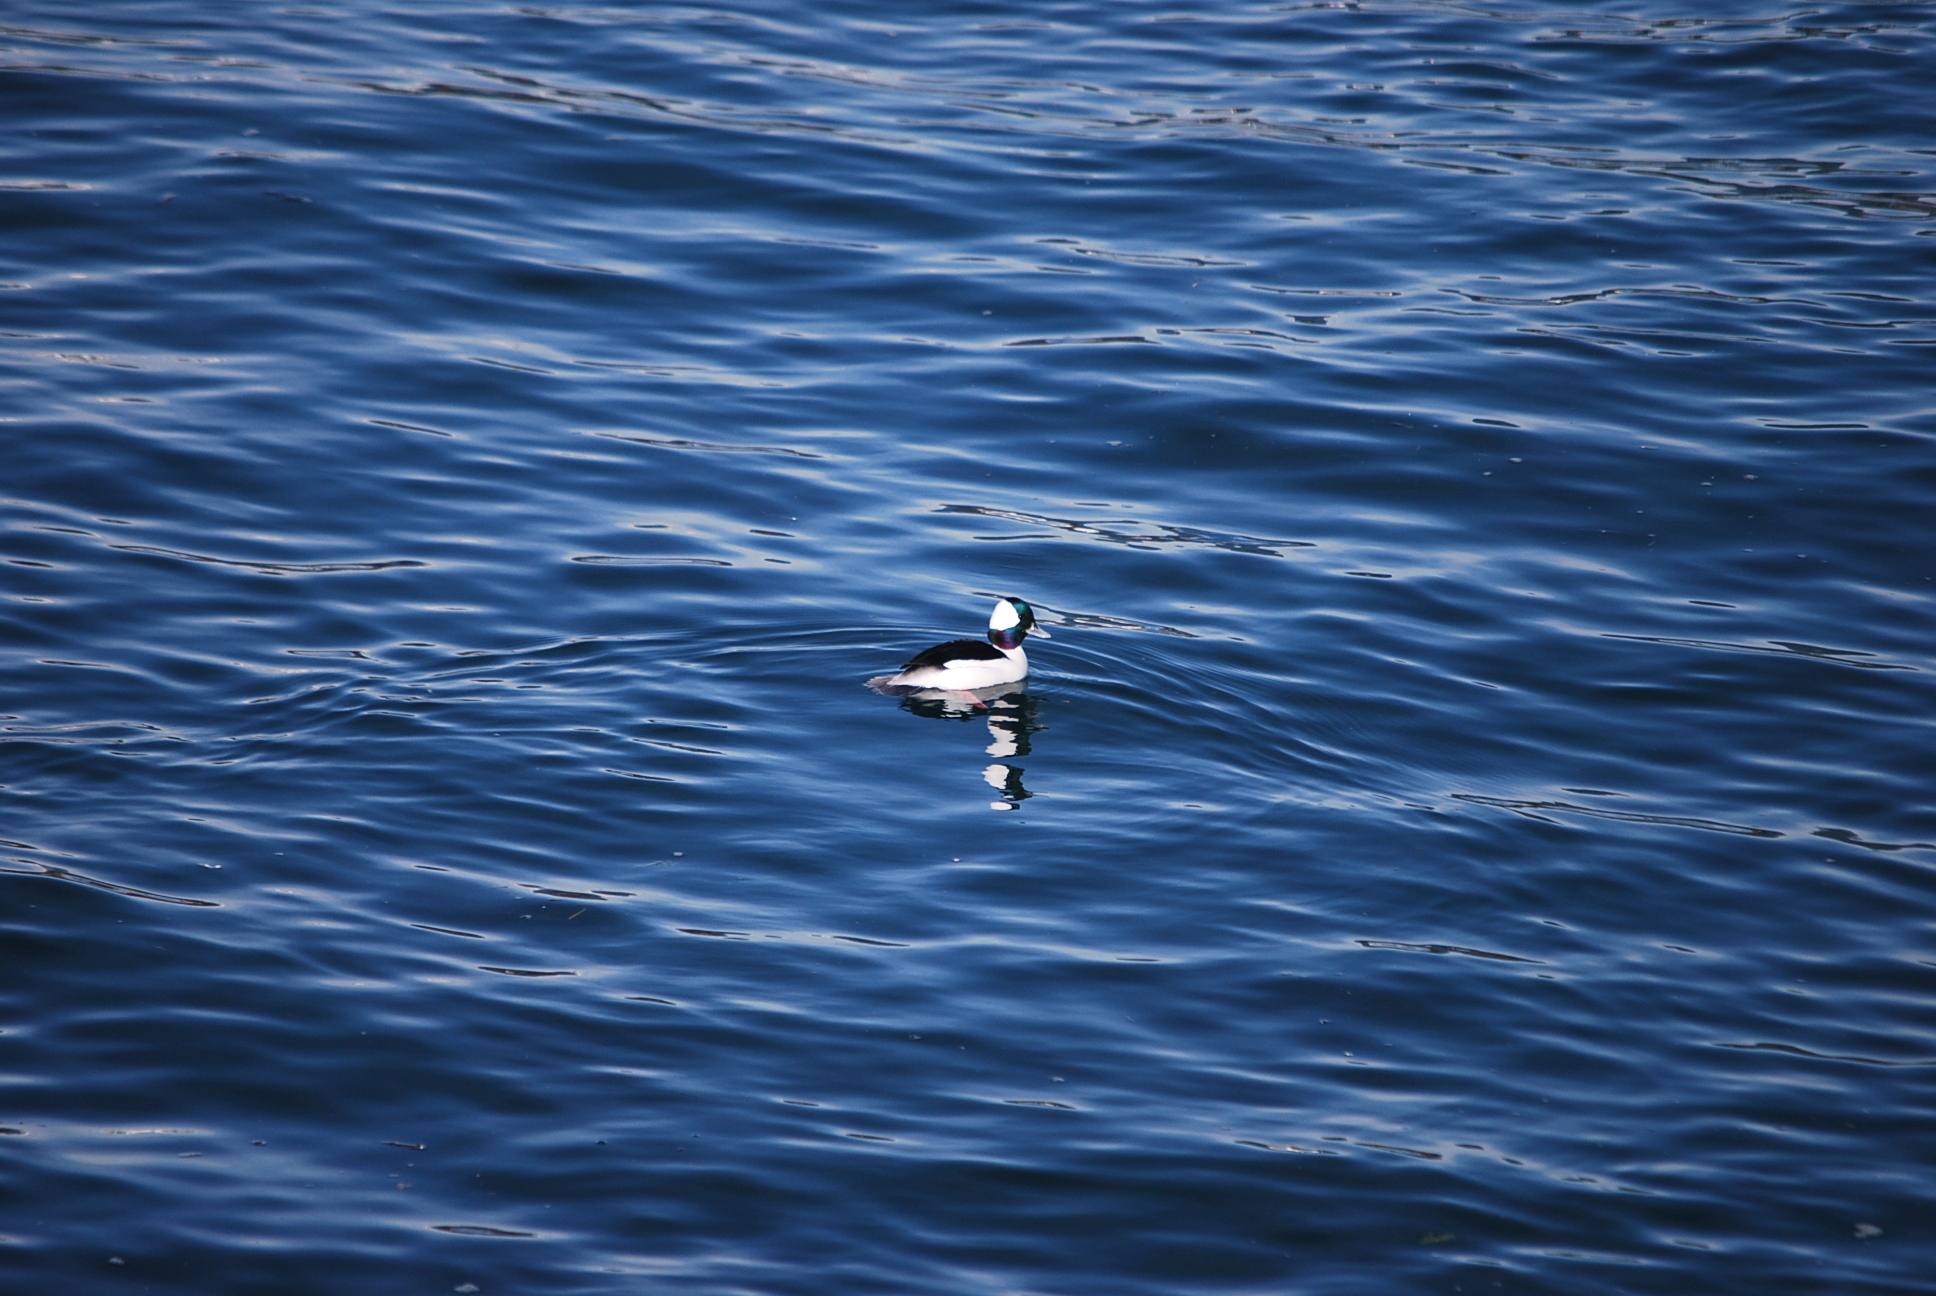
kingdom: Animalia
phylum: Chordata
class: Aves
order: Anseriformes
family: Anatidae
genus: Bucephala
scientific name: Bucephala albeola
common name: Bufflehead
